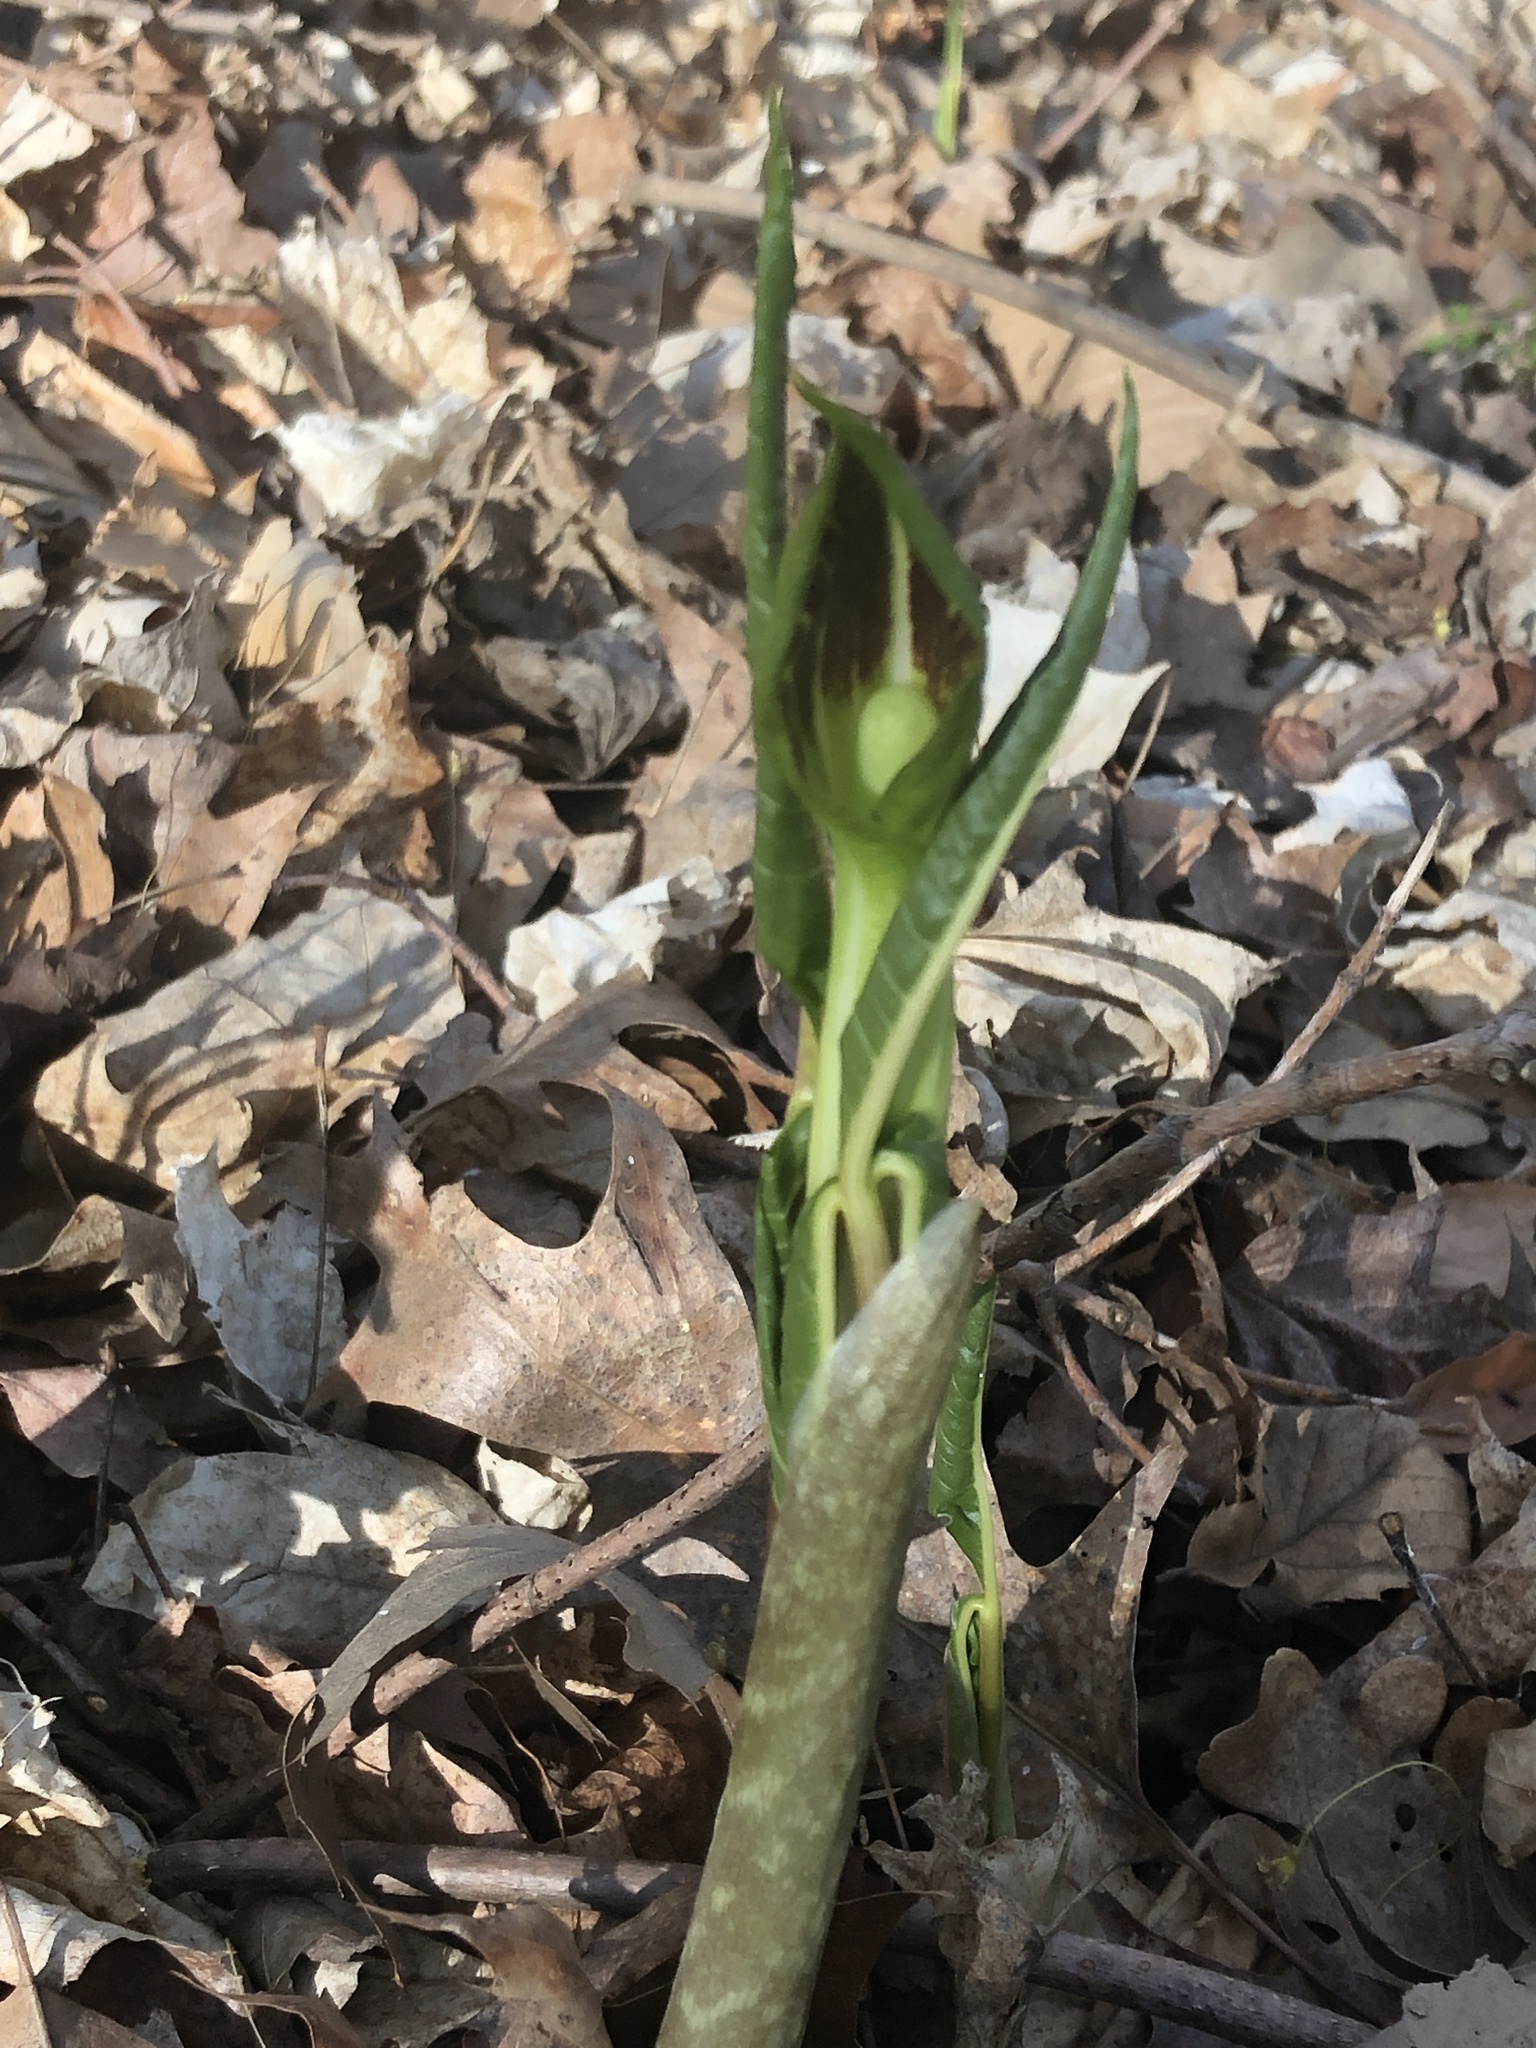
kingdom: Plantae
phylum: Tracheophyta
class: Liliopsida
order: Alismatales
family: Araceae
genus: Arisaema
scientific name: Arisaema triphyllum
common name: Jack-in-the-pulpit
